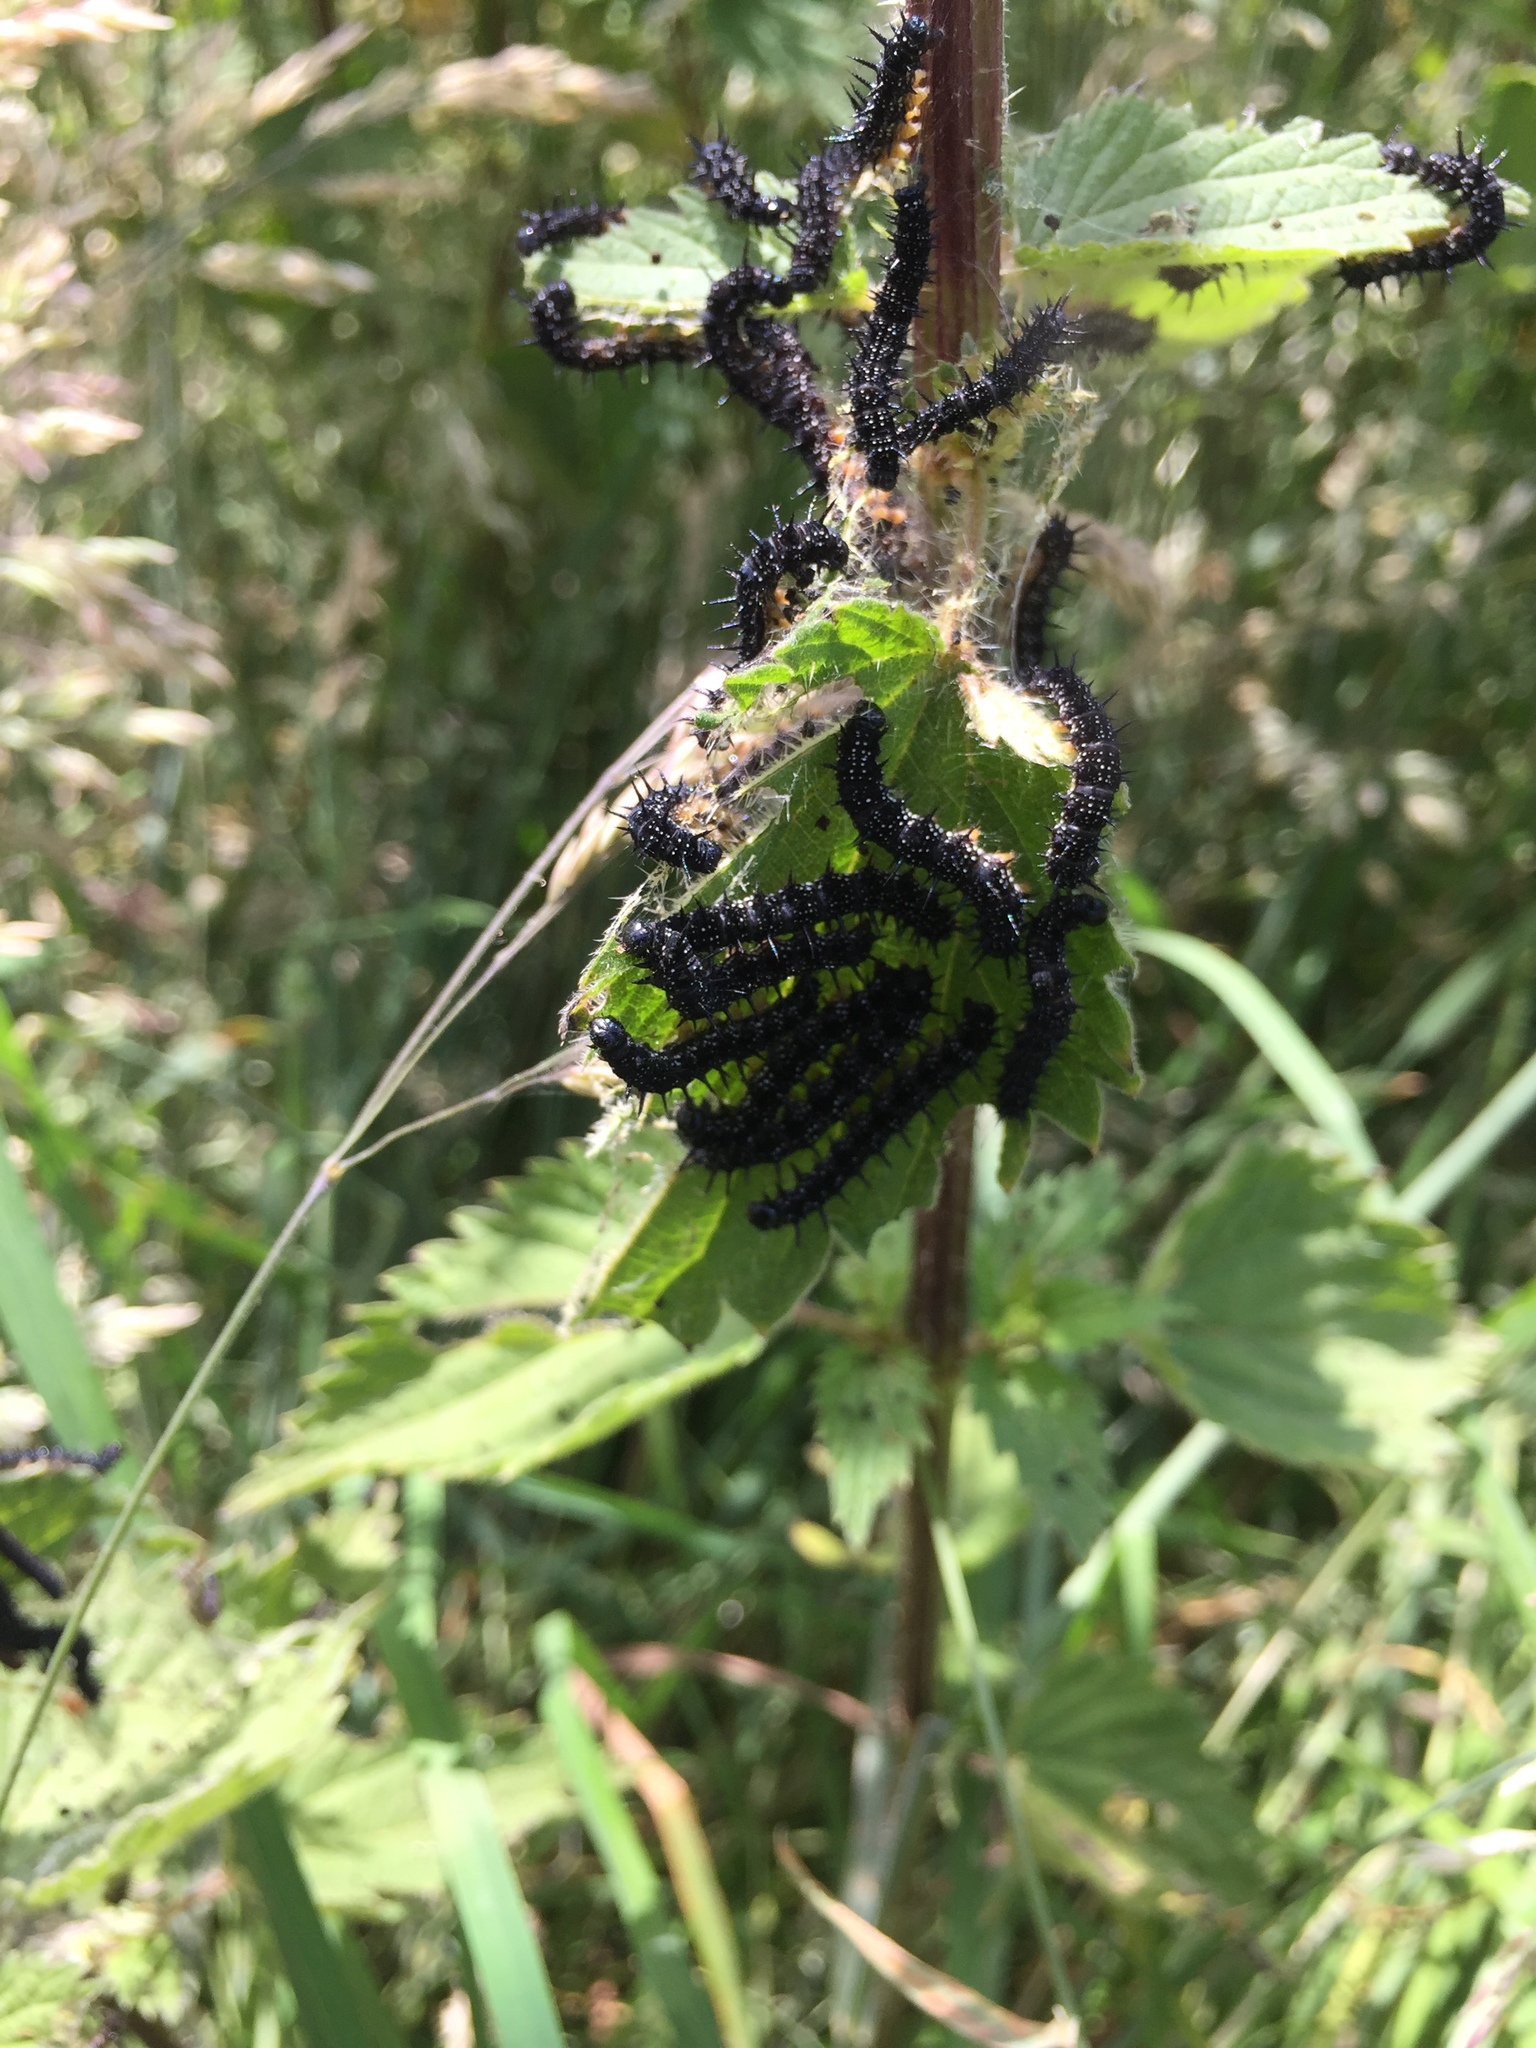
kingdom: Animalia
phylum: Arthropoda
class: Insecta
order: Lepidoptera
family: Nymphalidae
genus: Aglais
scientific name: Aglais io
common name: Peacock
